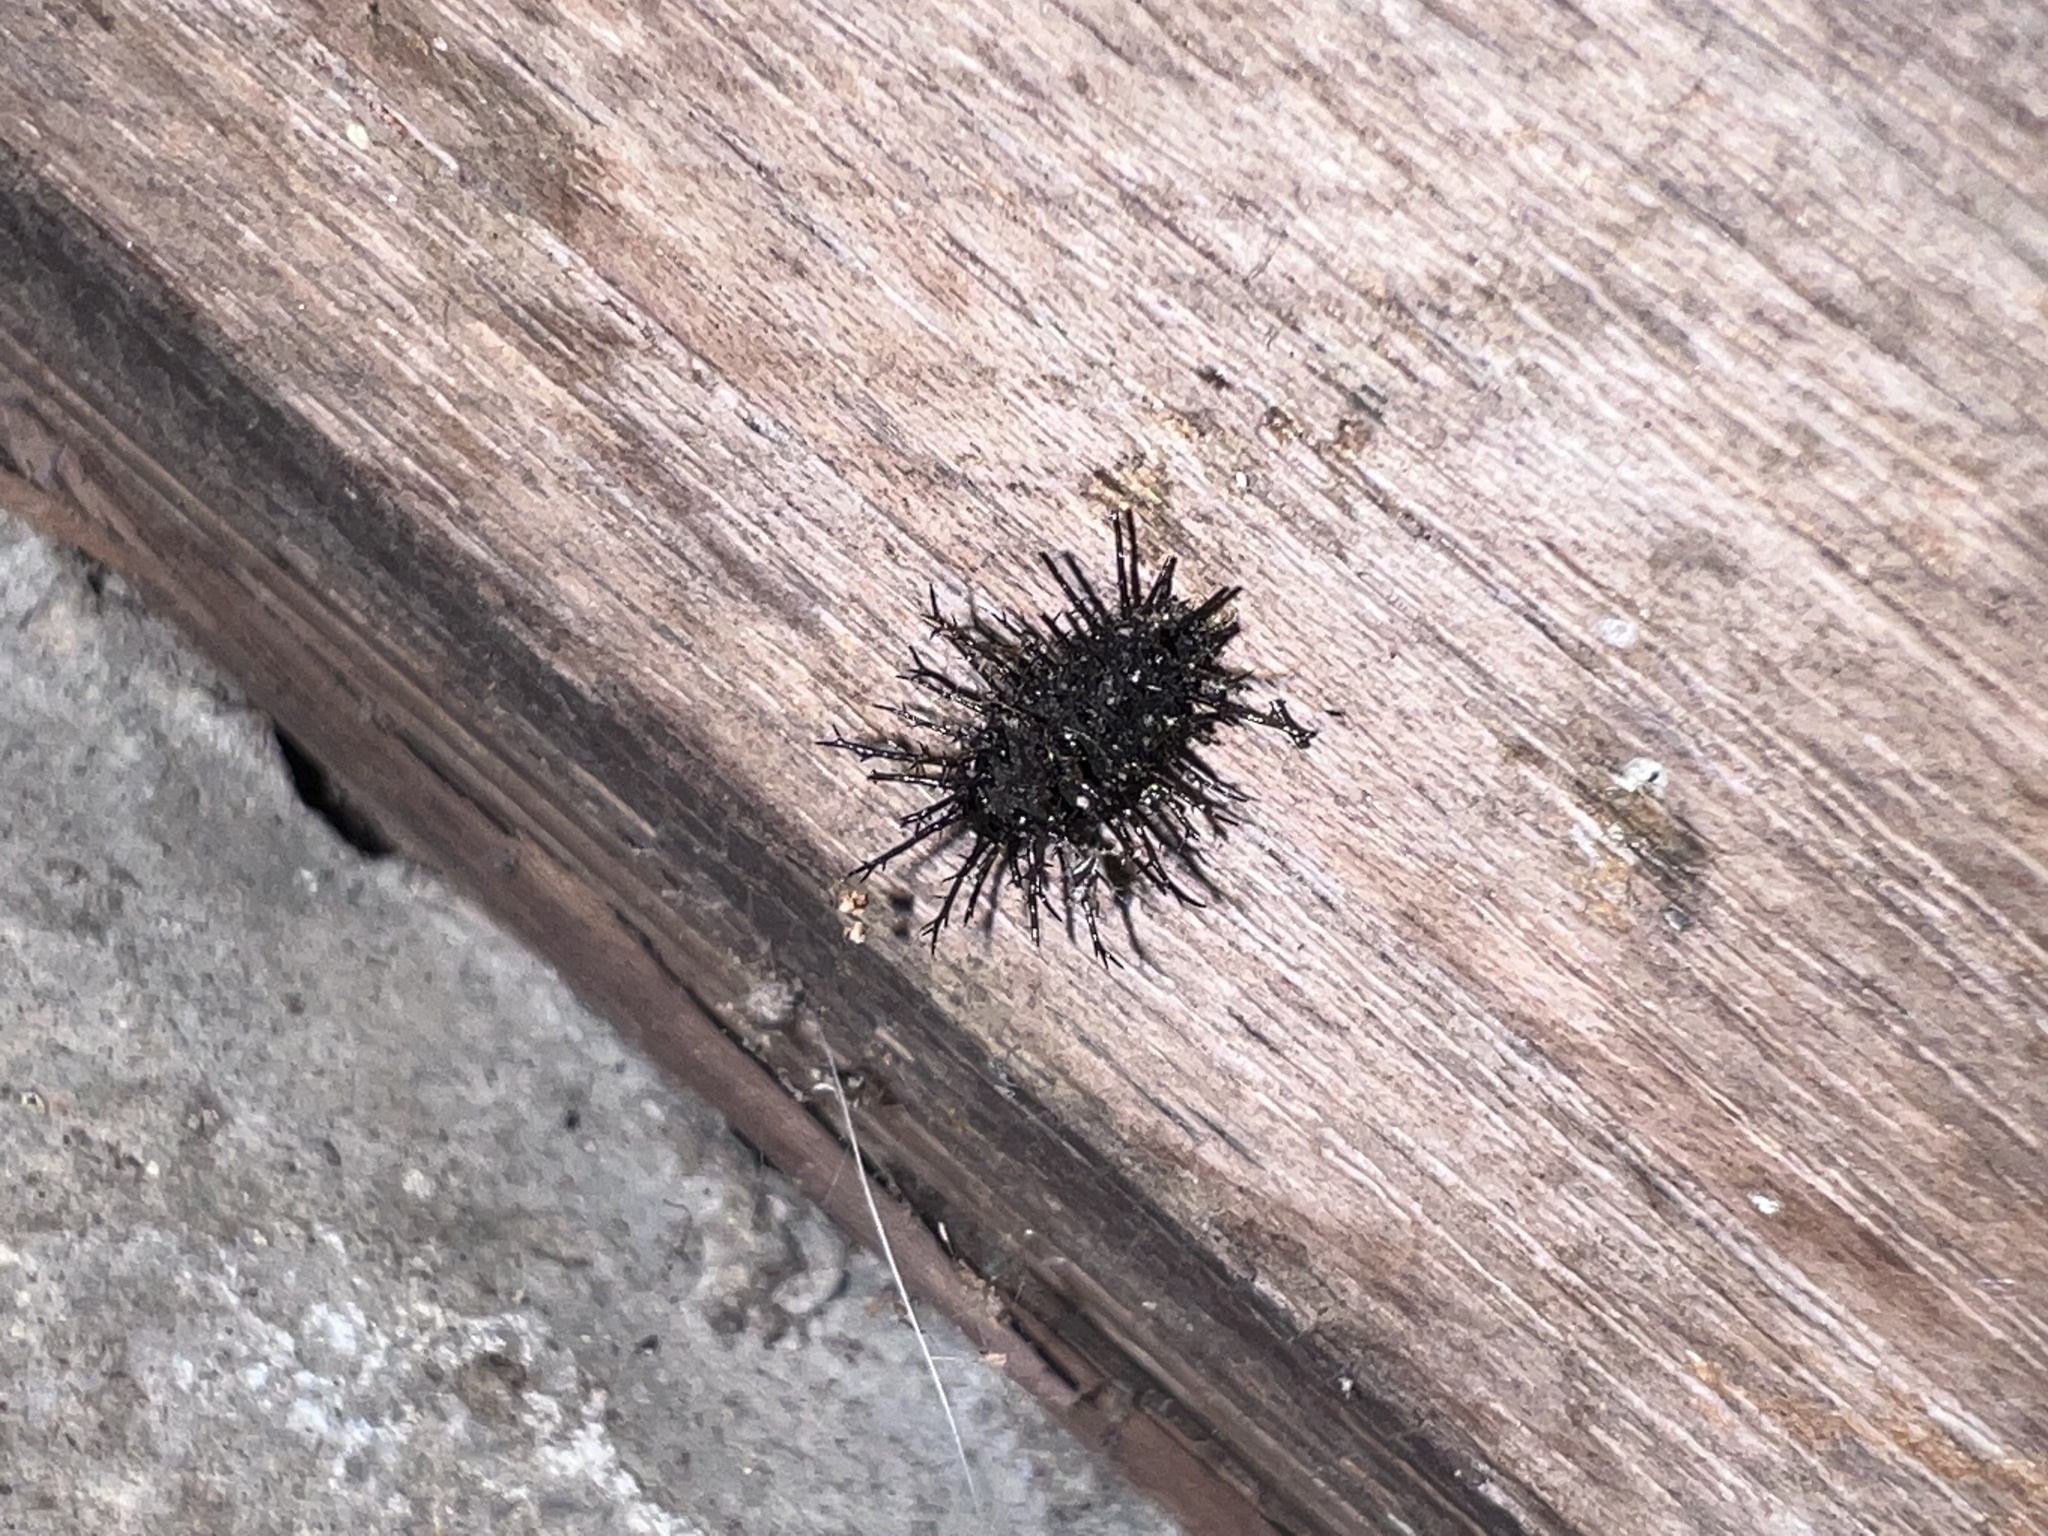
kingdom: Animalia
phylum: Arthropoda
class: Insecta
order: Coleoptera
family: Coccinellidae
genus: Epilachna
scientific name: Epilachna
